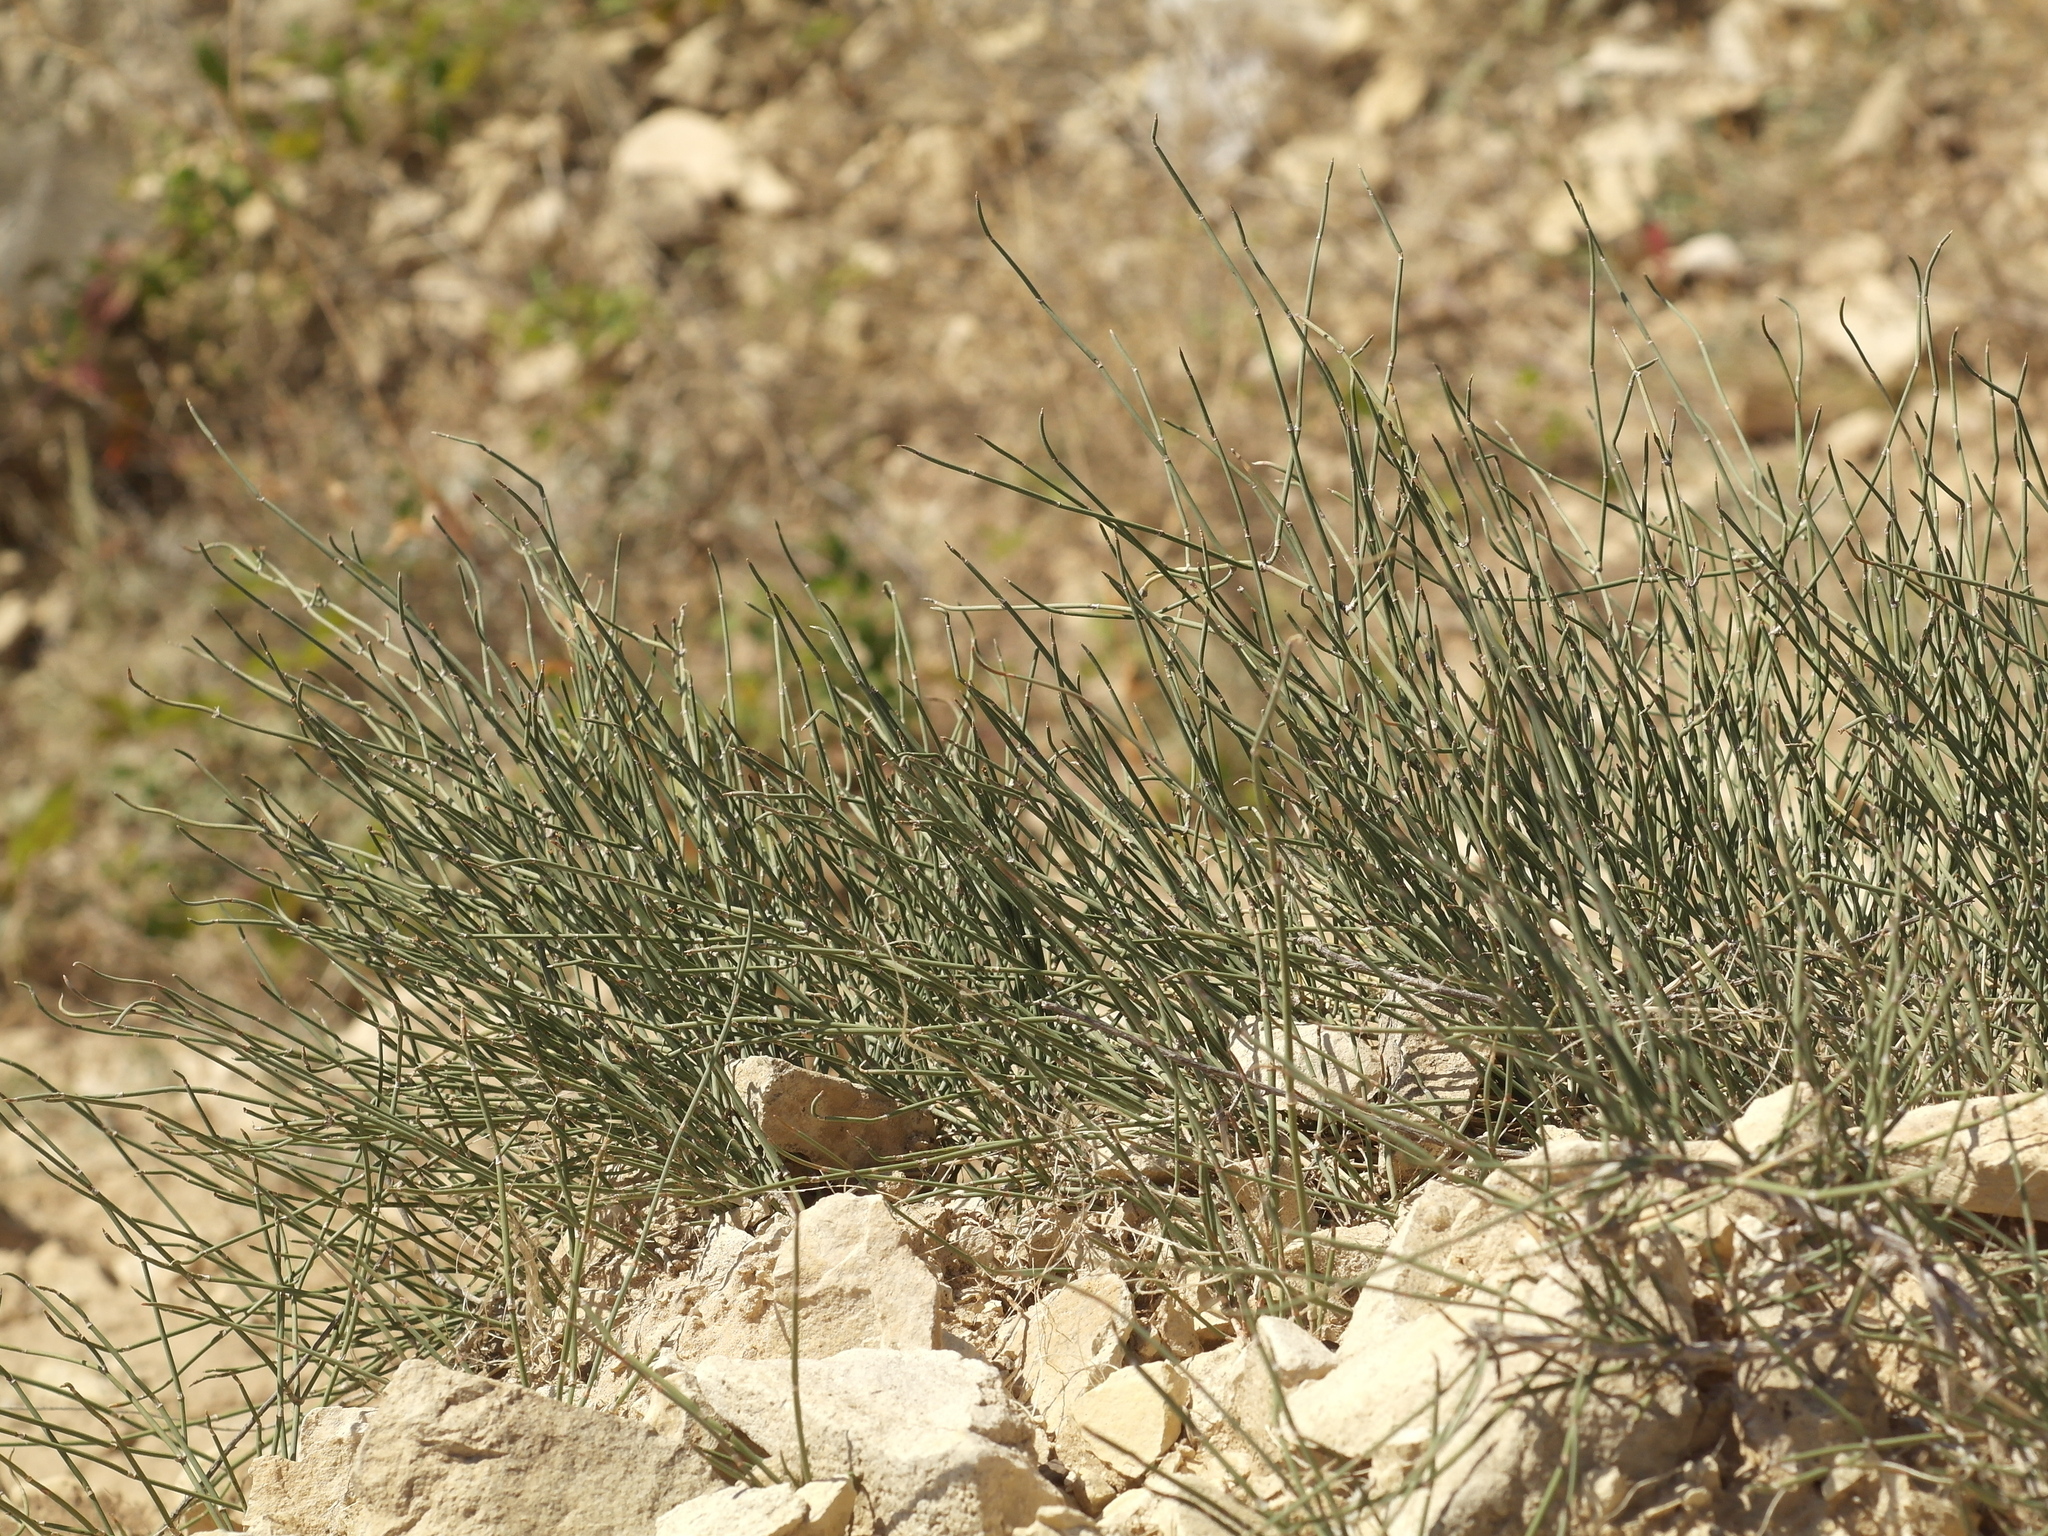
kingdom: Plantae
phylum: Tracheophyta
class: Gnetopsida
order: Ephedrales
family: Ephedraceae
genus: Ephedra
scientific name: Ephedra distachya
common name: Sea grape
